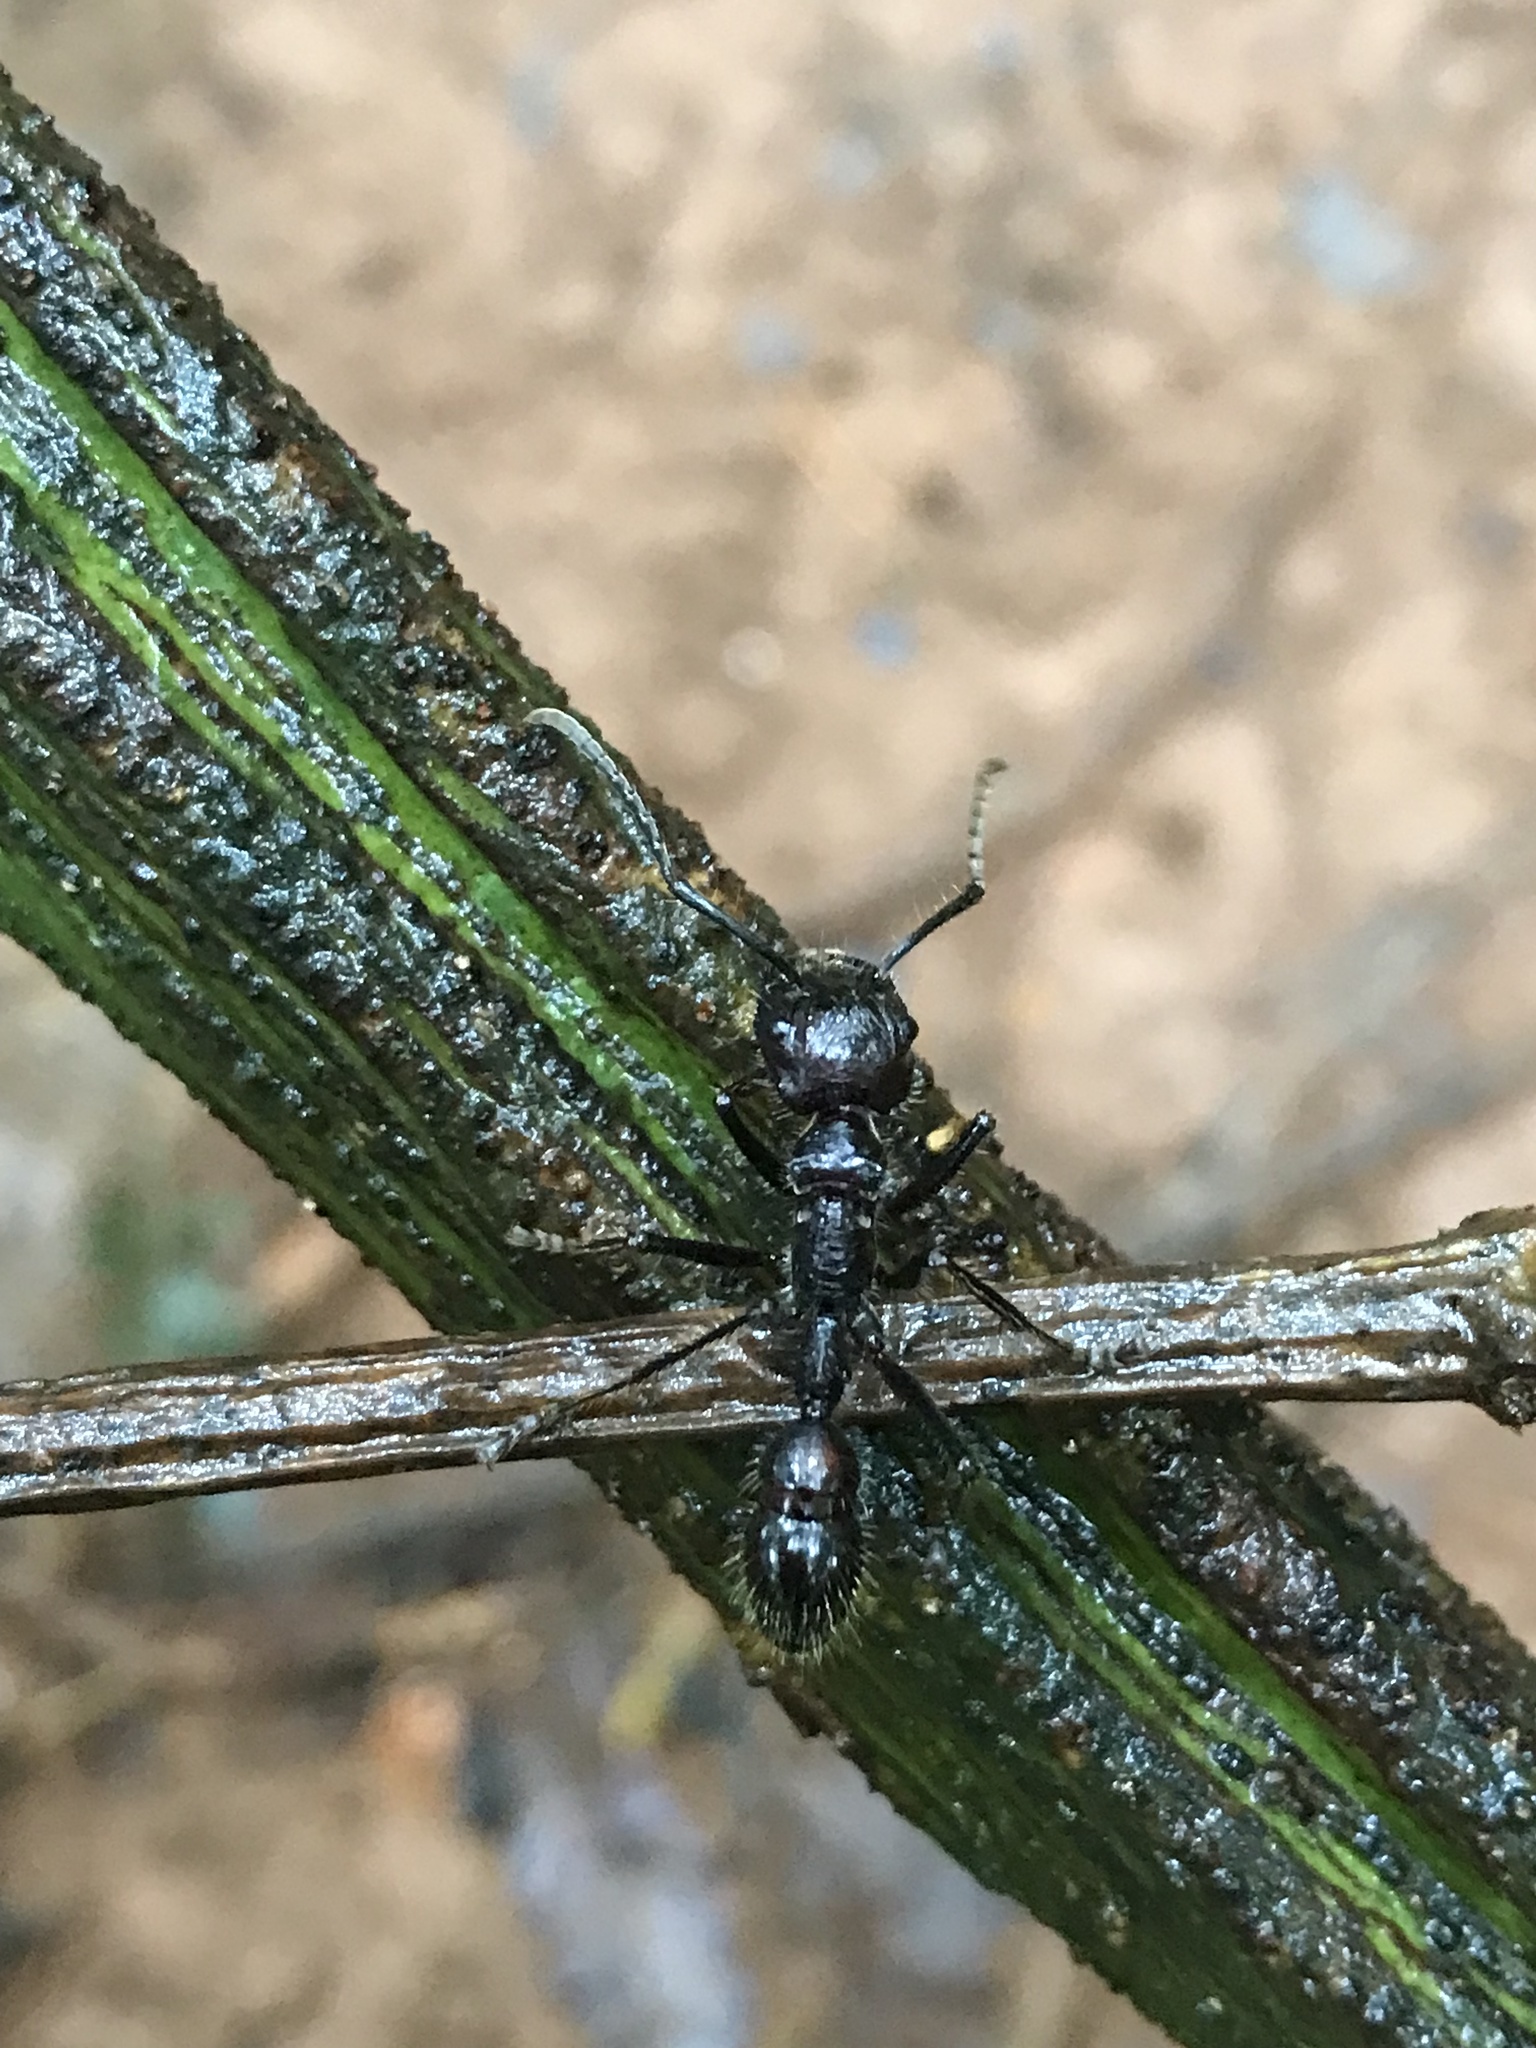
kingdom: Animalia
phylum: Arthropoda
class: Insecta
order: Hymenoptera
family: Formicidae
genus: Paraponera
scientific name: Paraponera clavata
